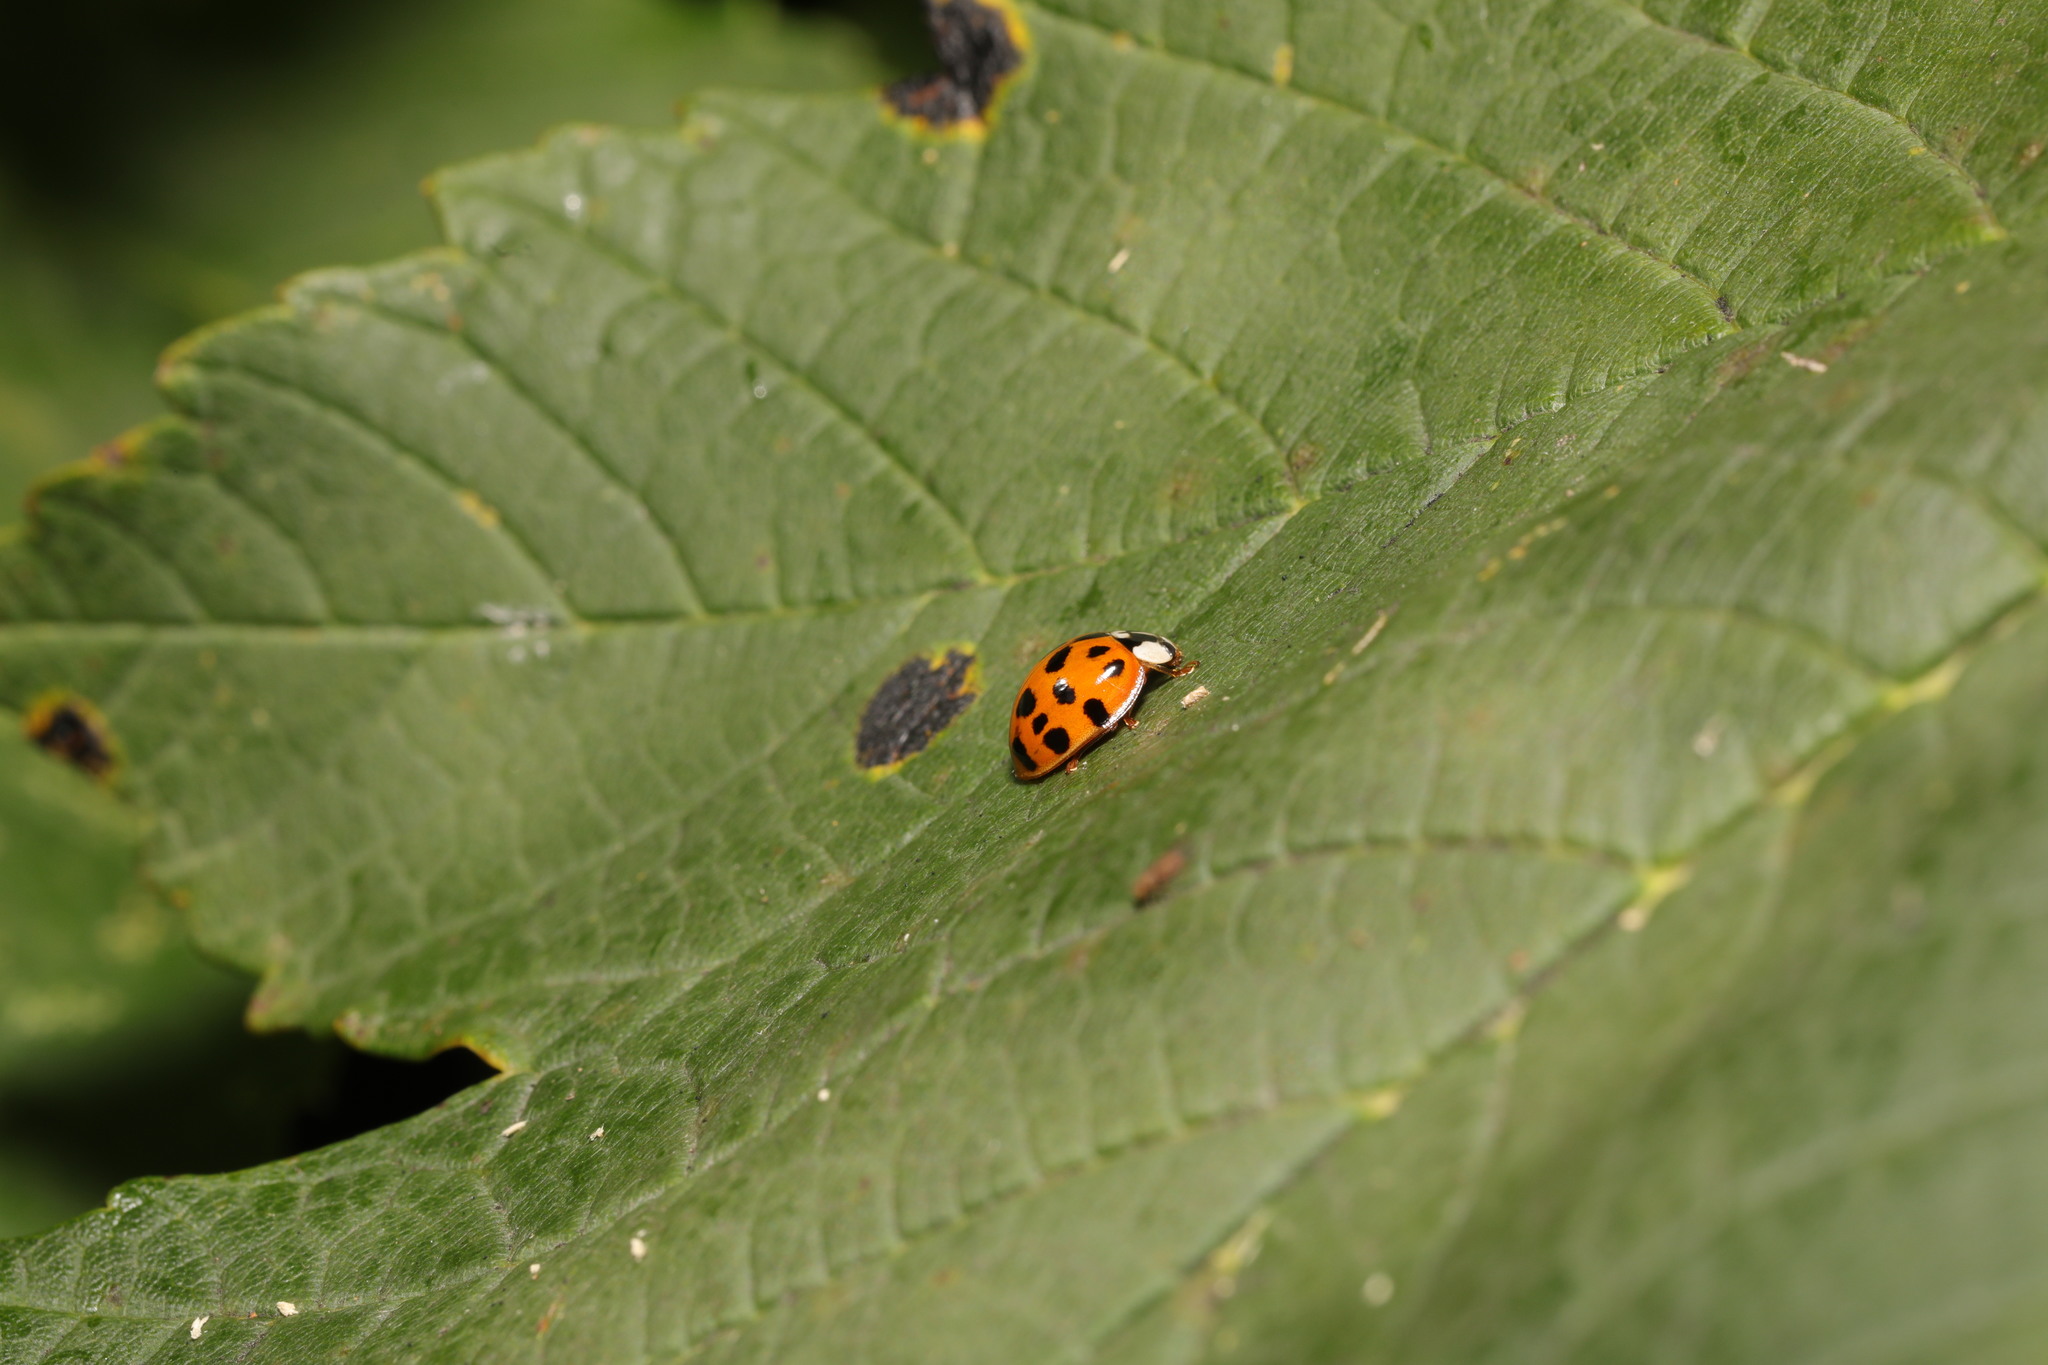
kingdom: Animalia
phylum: Arthropoda
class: Insecta
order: Coleoptera
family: Coccinellidae
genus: Harmonia
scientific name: Harmonia axyridis
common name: Harlequin ladybird
